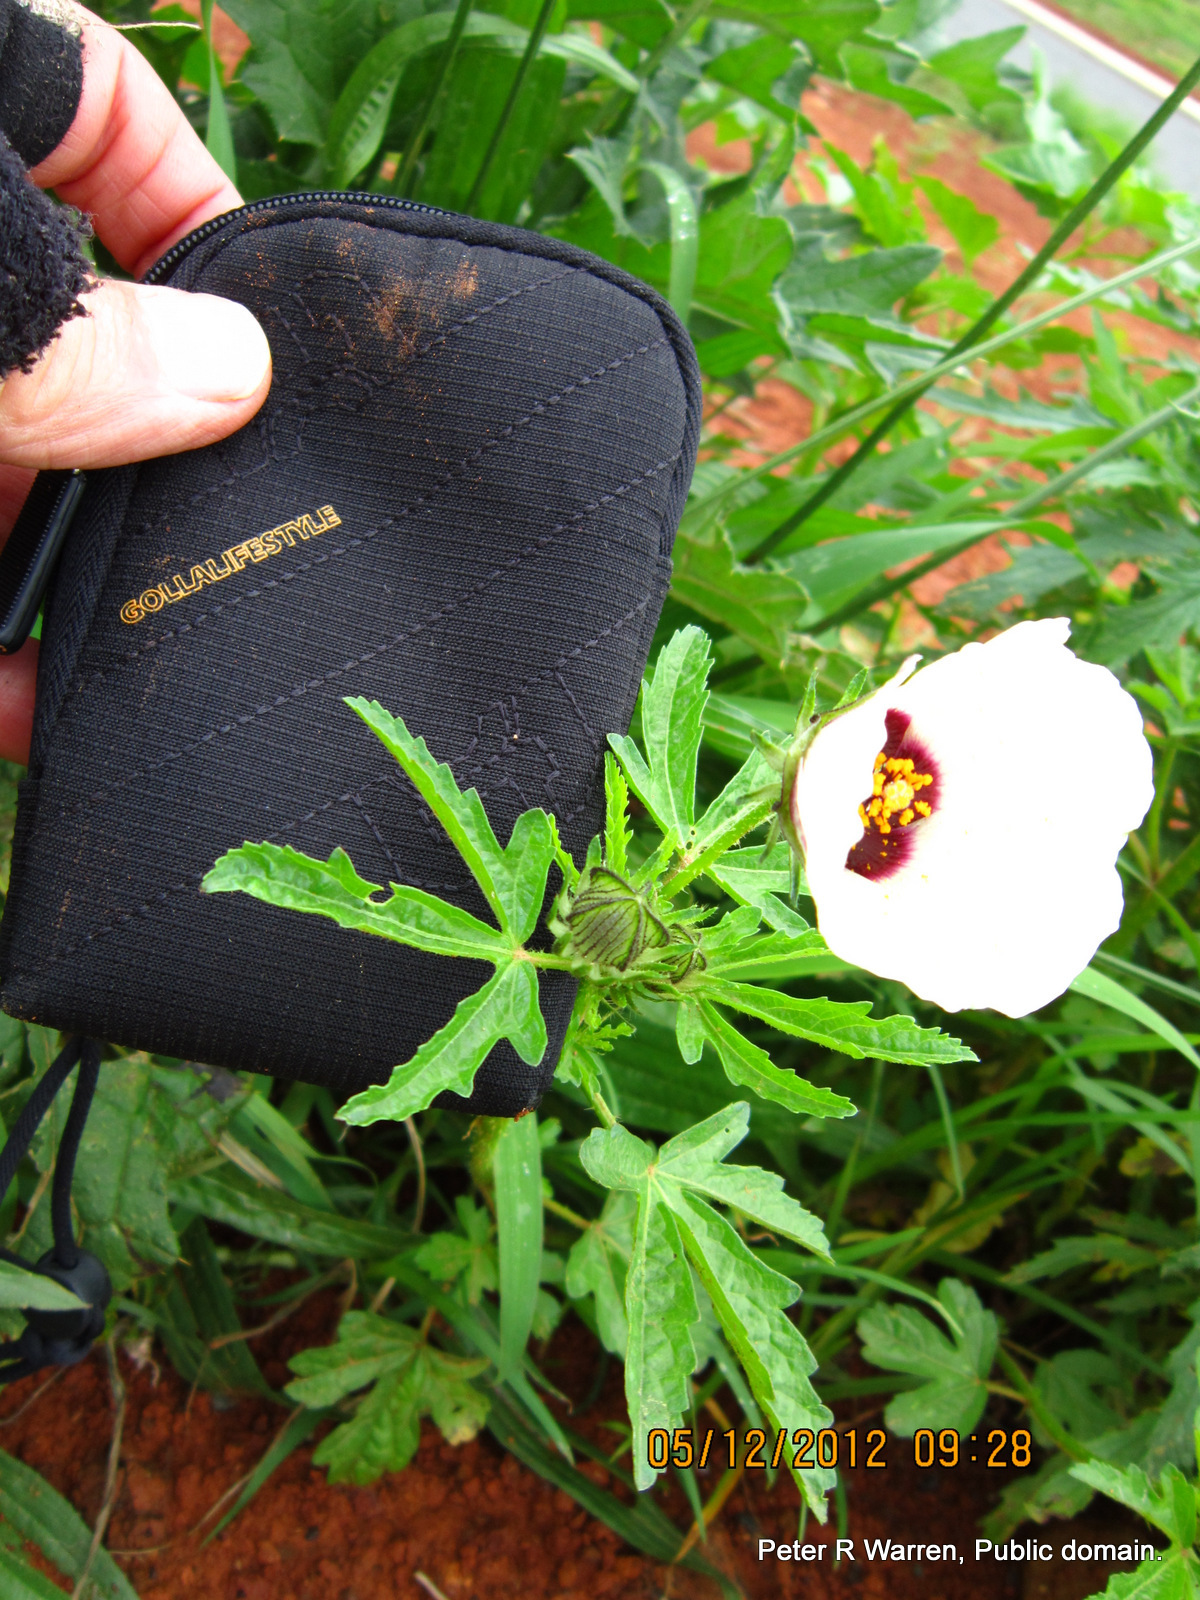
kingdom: Plantae
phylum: Tracheophyta
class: Magnoliopsida
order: Malvales
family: Malvaceae
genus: Hibiscus
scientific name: Hibiscus trionum
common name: Bladder ketmia
